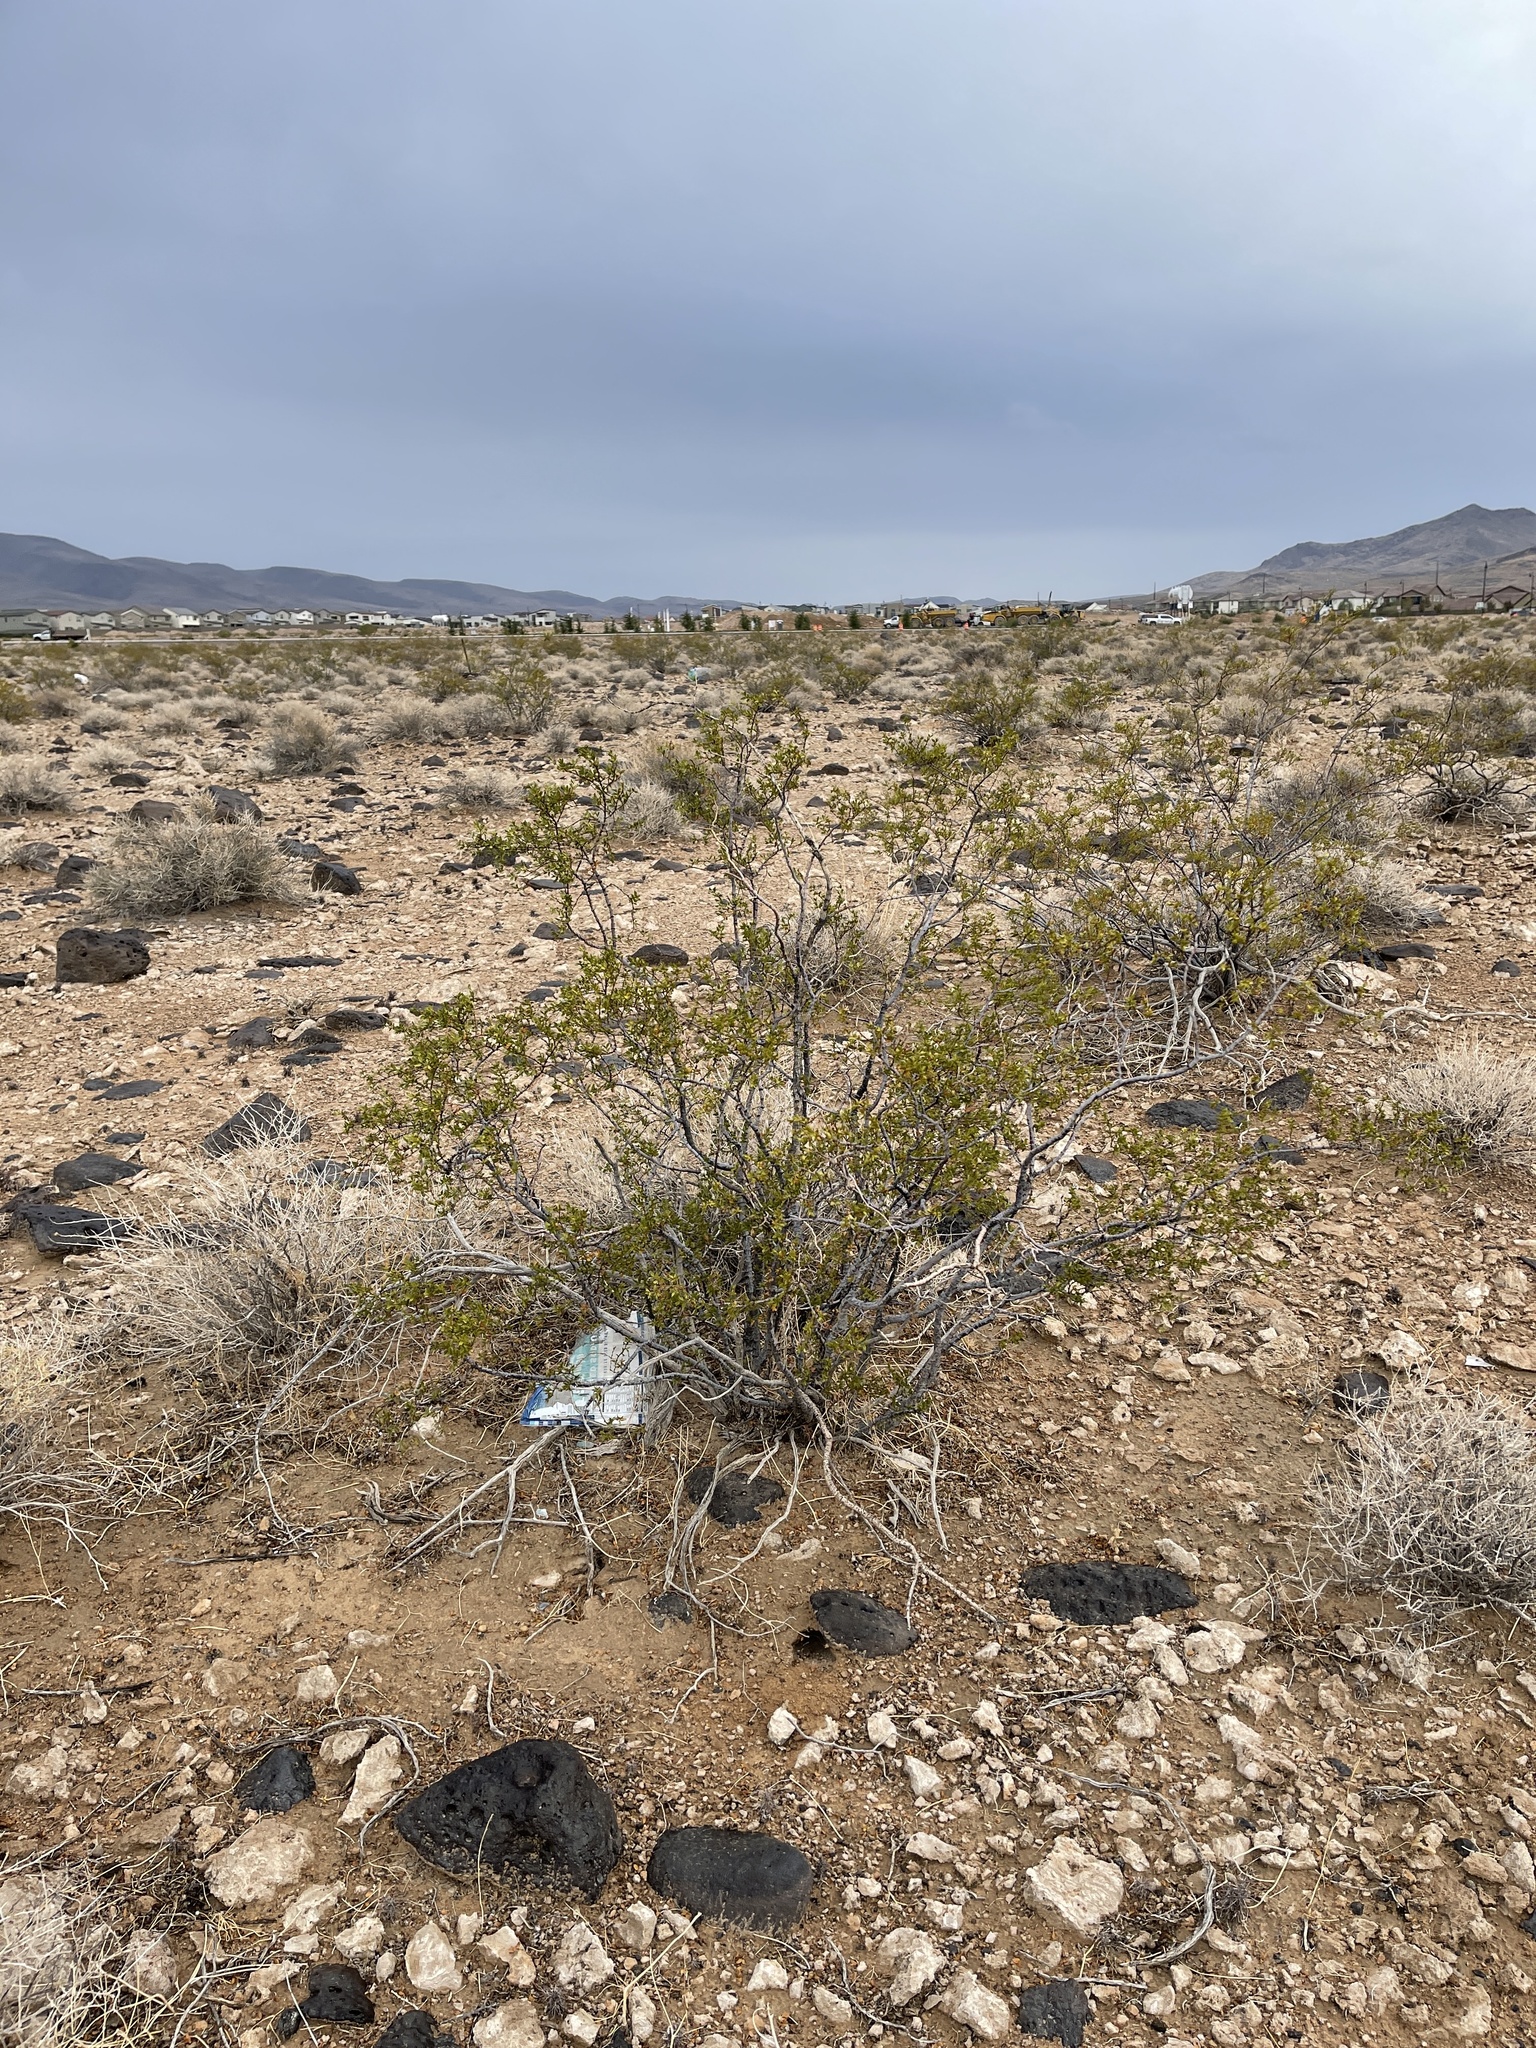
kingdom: Plantae
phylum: Tracheophyta
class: Magnoliopsida
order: Zygophyllales
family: Zygophyllaceae
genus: Larrea
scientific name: Larrea tridentata
